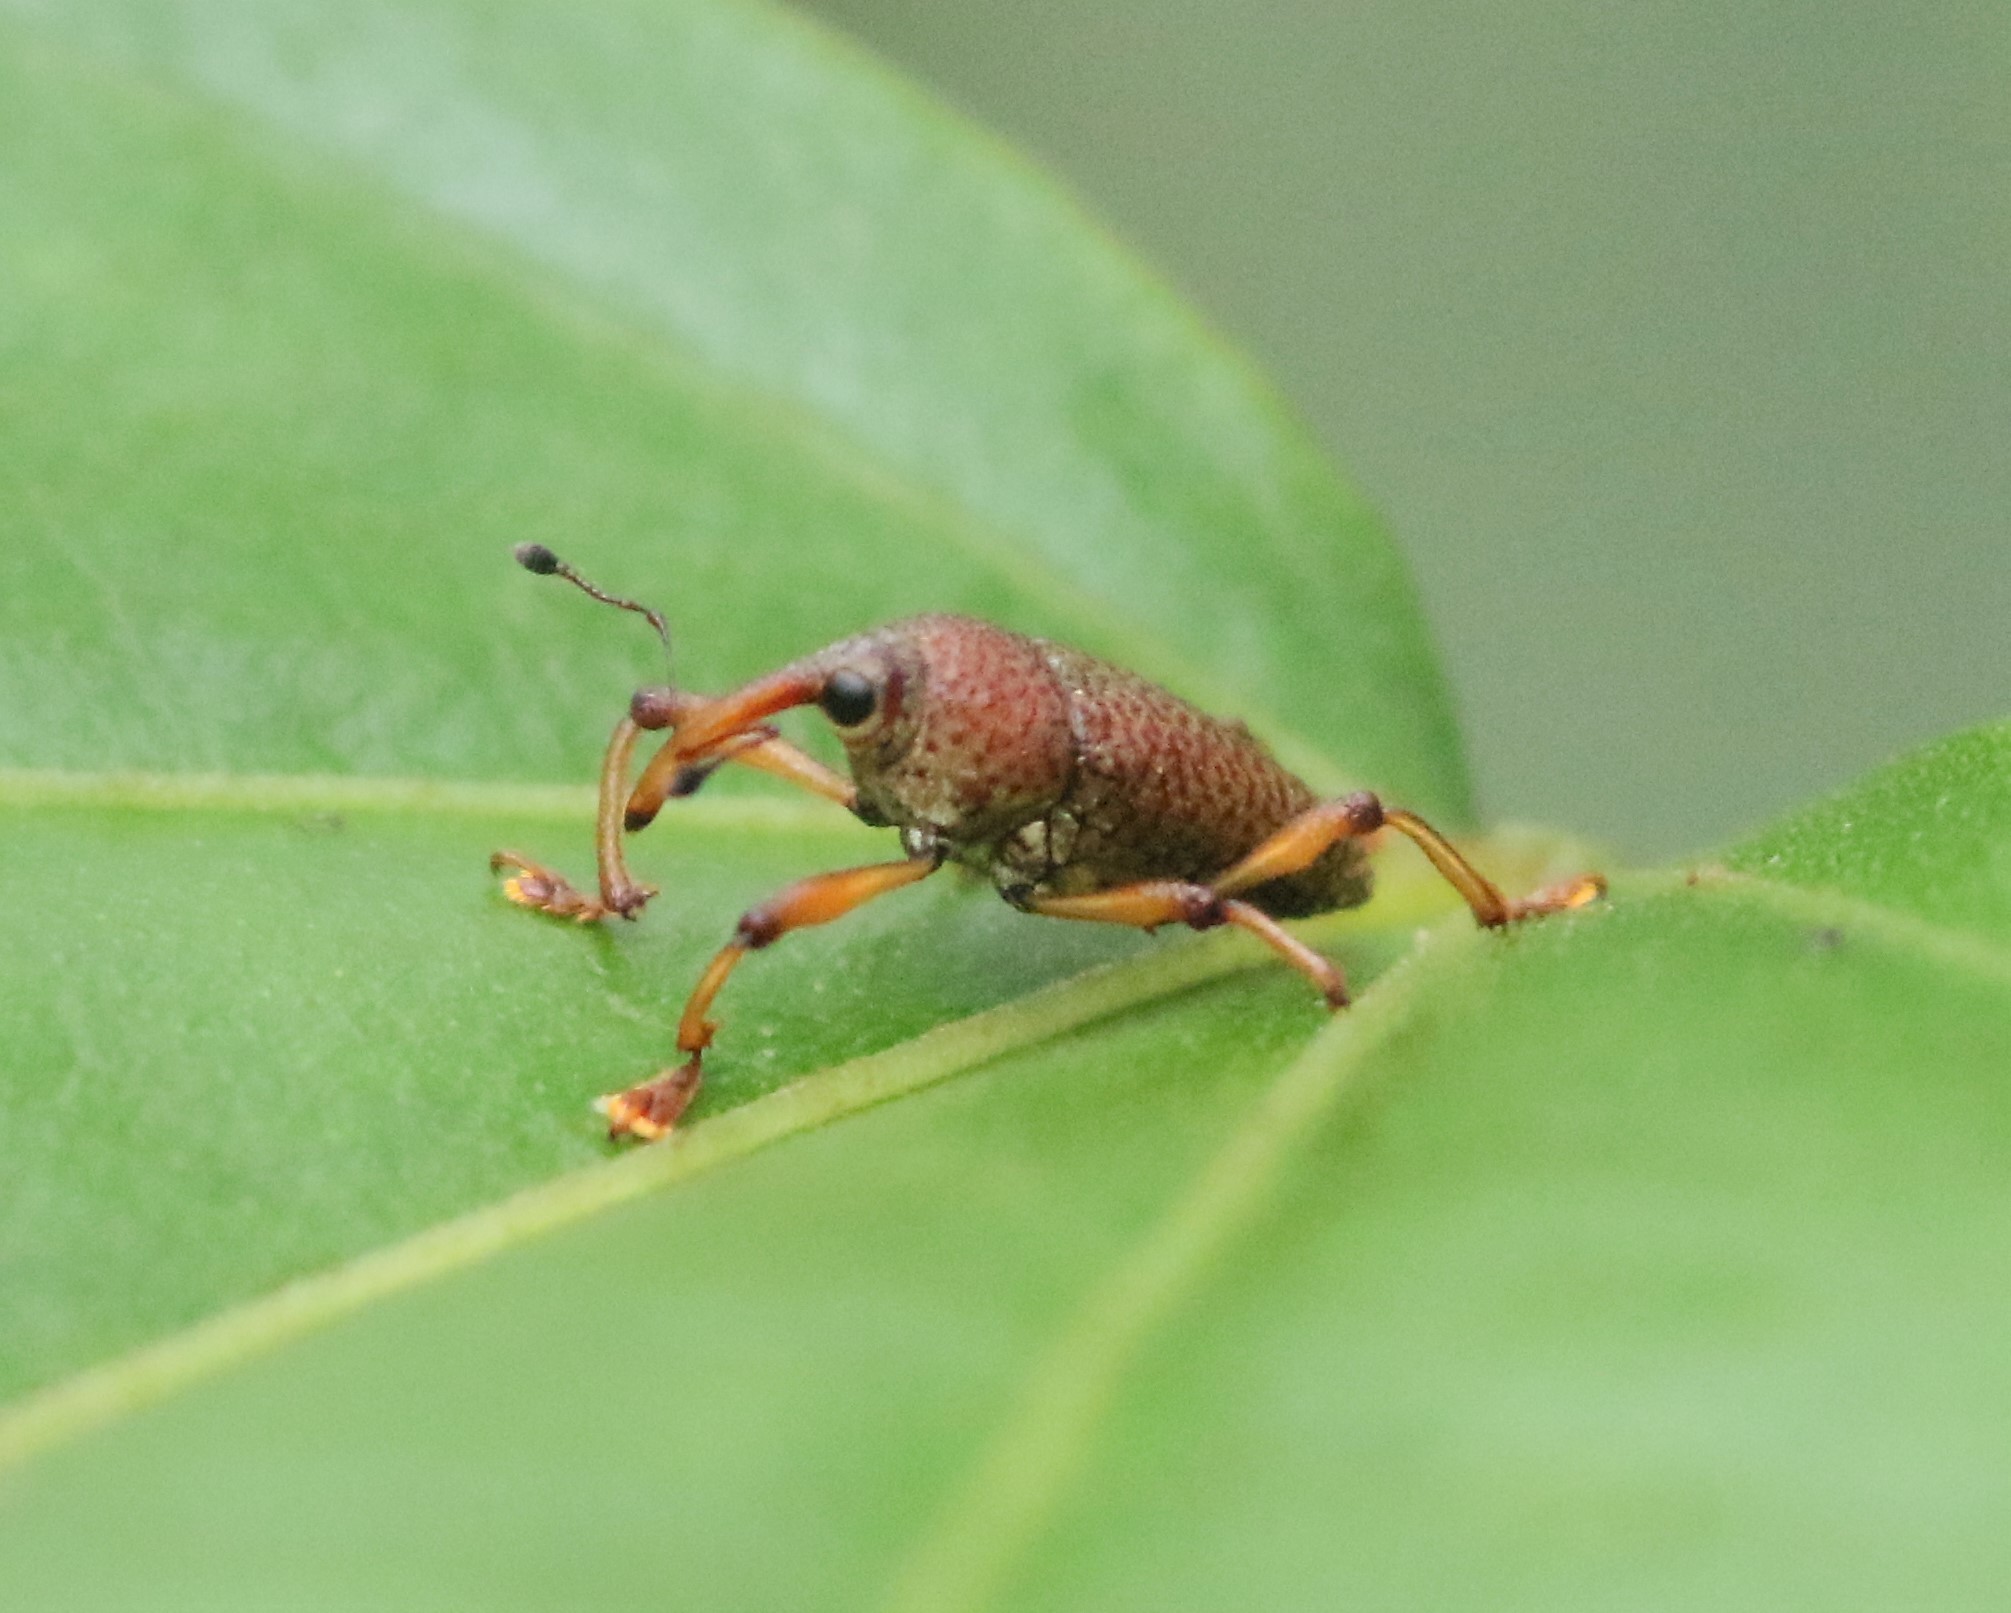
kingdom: Animalia
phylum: Arthropoda
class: Insecta
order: Coleoptera
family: Curculionidae
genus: Cholus
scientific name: Cholus lecideosus
